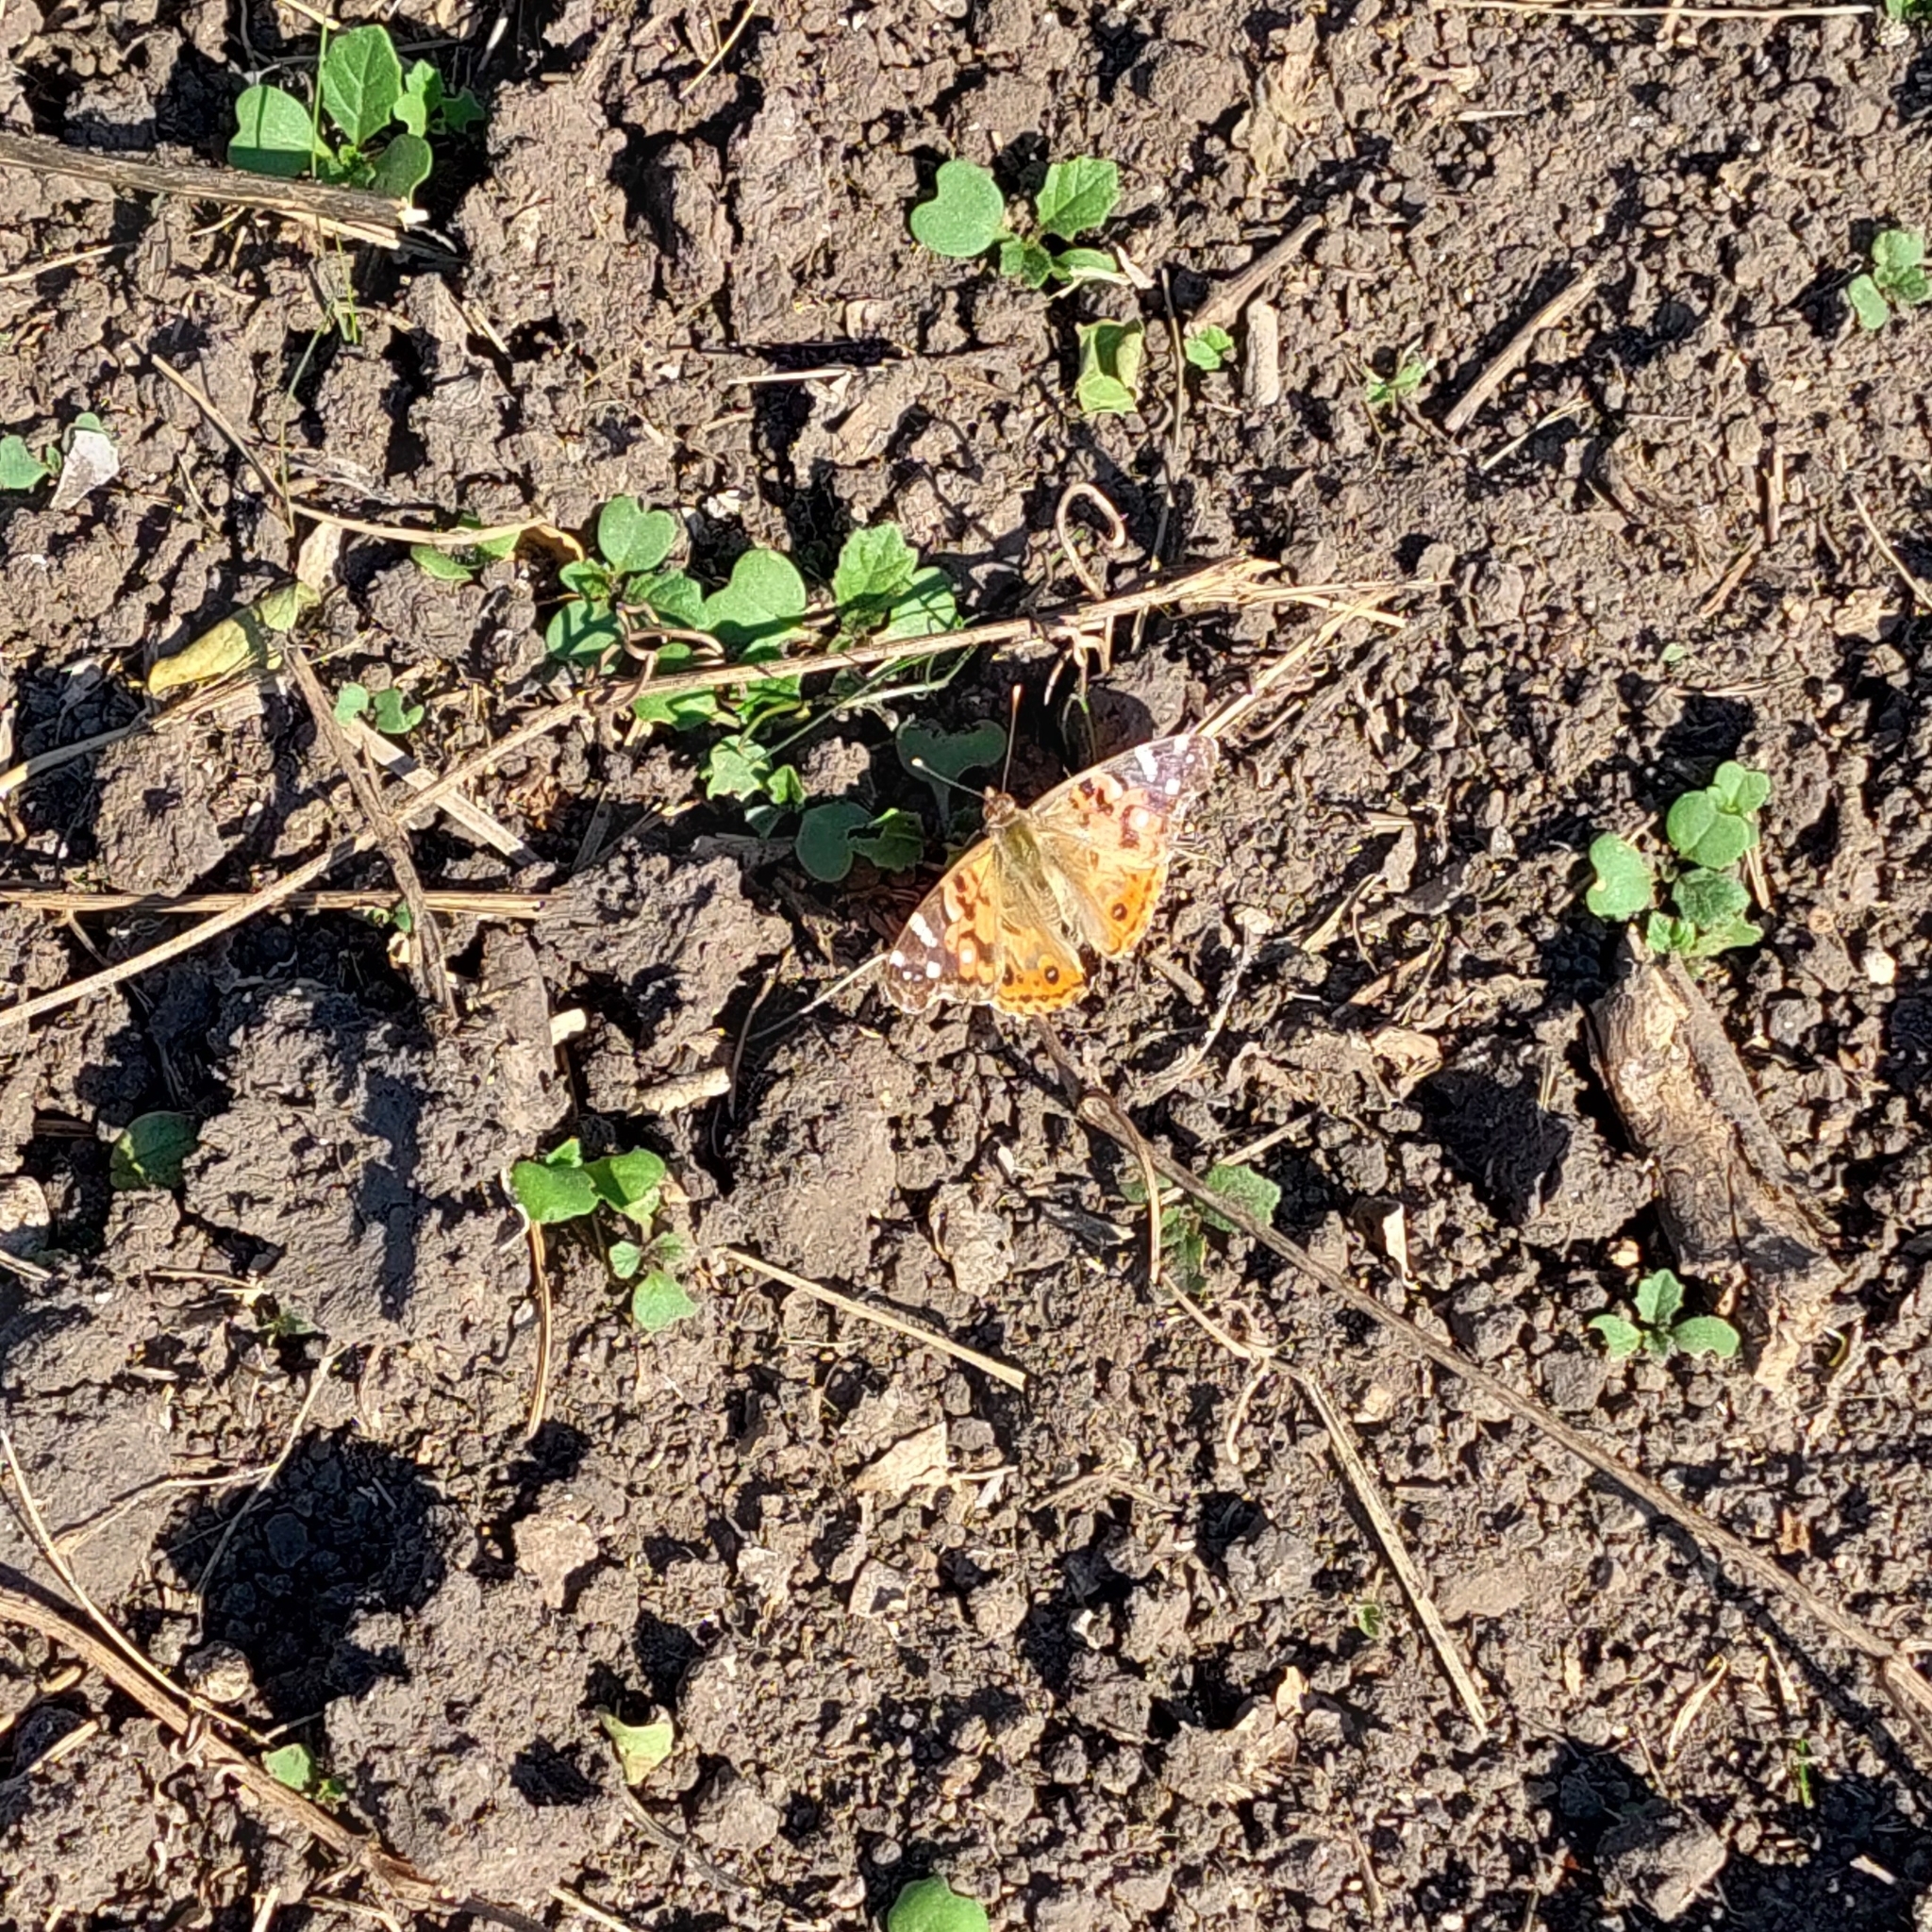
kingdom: Animalia
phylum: Arthropoda
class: Insecta
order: Lepidoptera
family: Nymphalidae
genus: Vanessa
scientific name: Vanessa braziliensis
